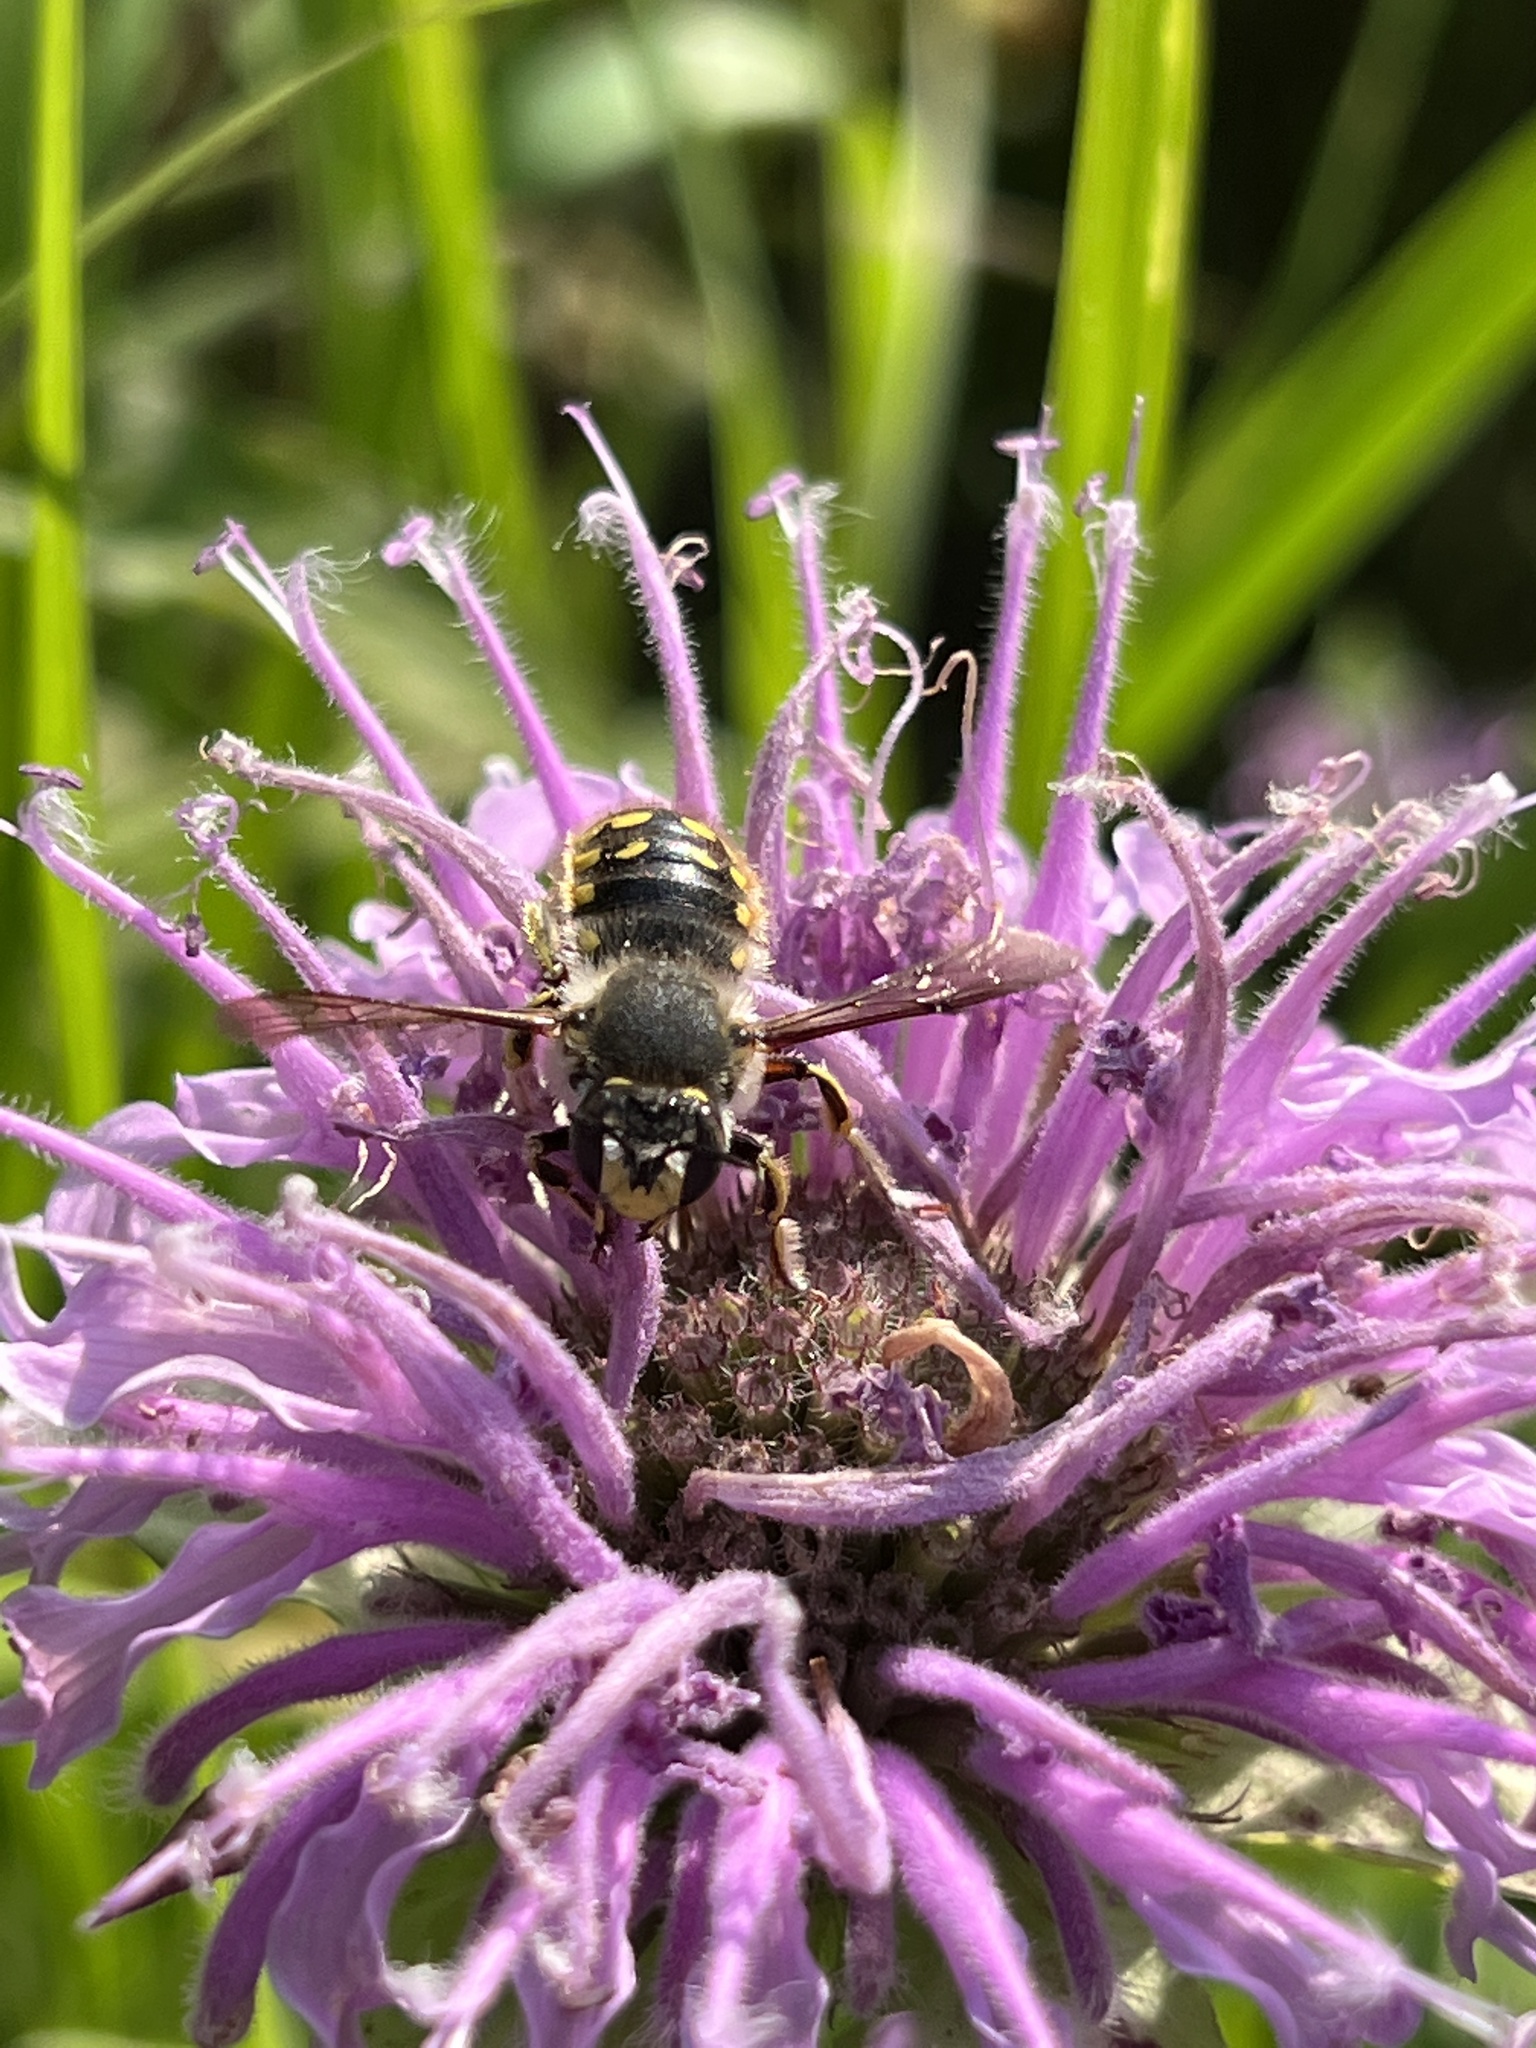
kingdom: Animalia
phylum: Arthropoda
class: Insecta
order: Hymenoptera
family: Megachilidae
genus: Anthidium
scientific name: Anthidium manicatum
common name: Wool carder bee
